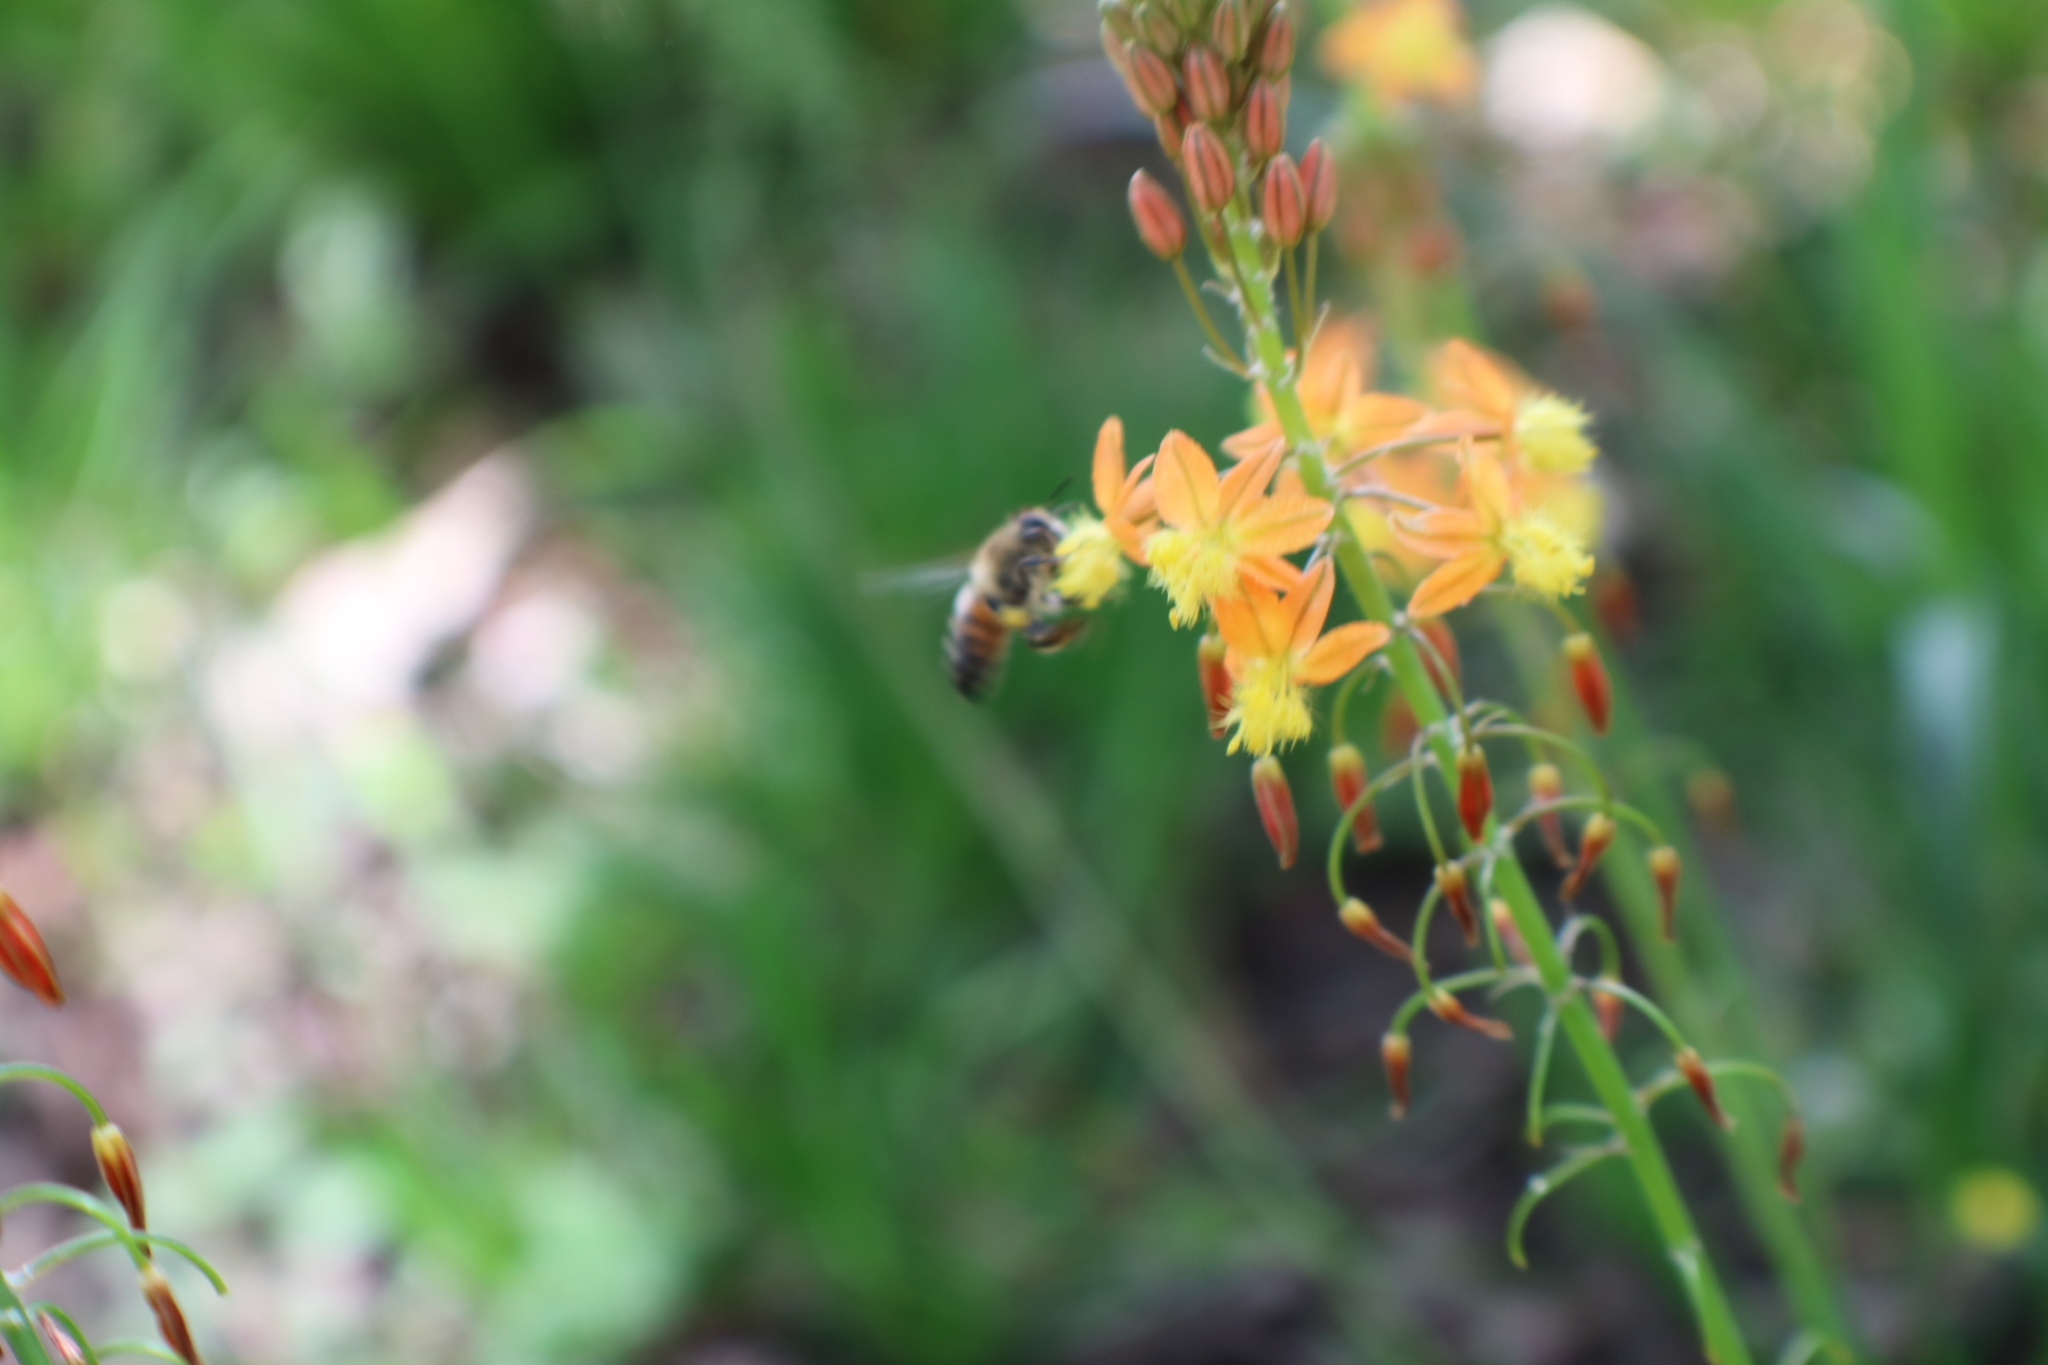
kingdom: Animalia
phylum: Arthropoda
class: Insecta
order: Hymenoptera
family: Apidae
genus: Apis
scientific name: Apis mellifera
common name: Honey bee
